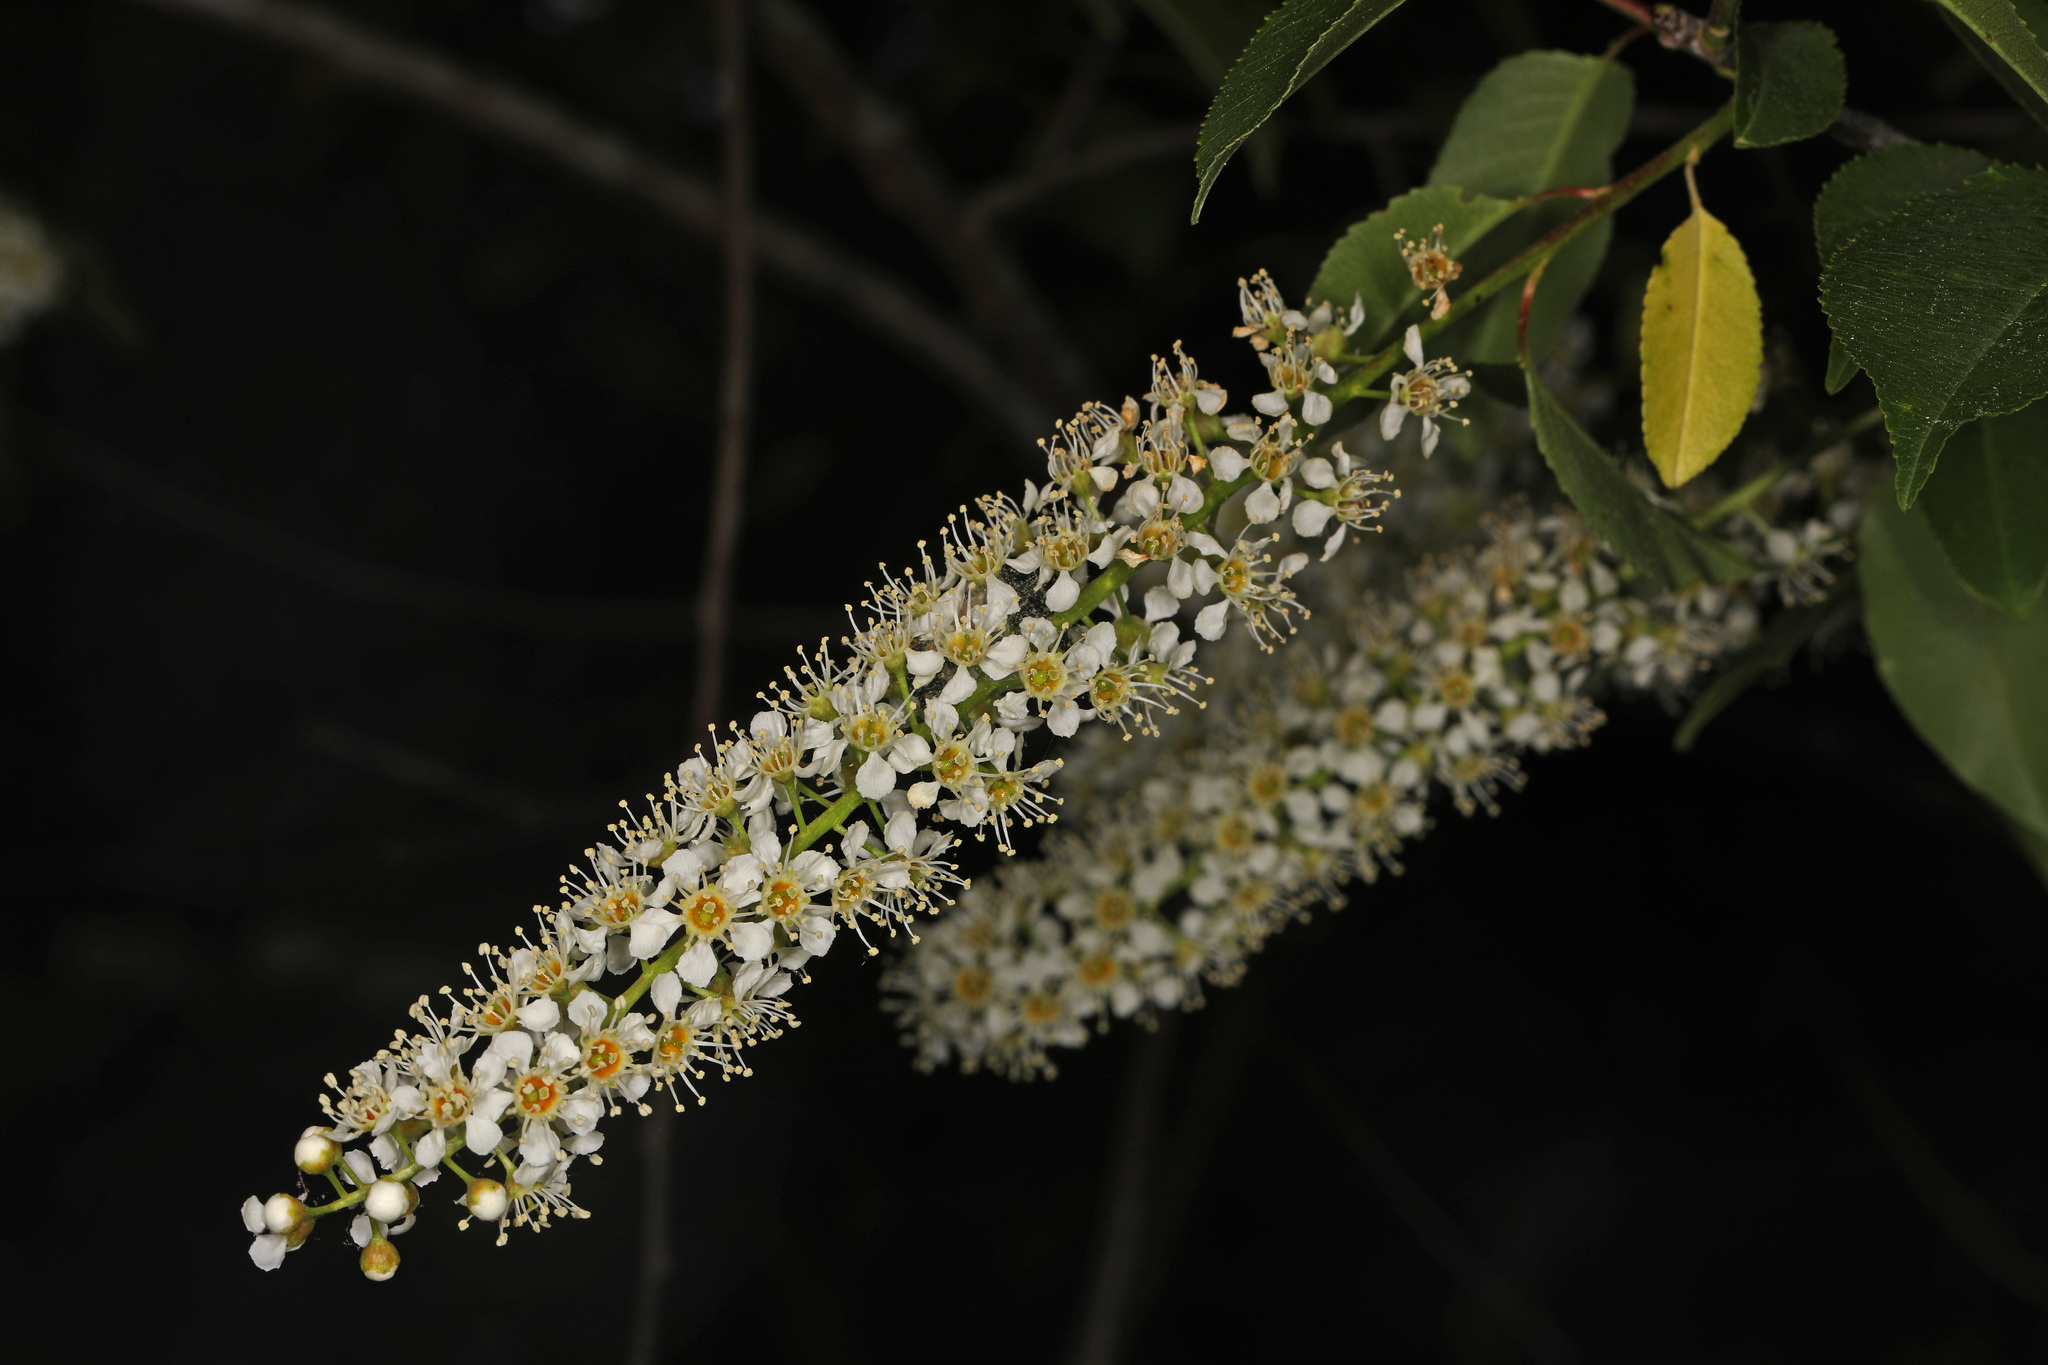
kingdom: Plantae
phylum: Tracheophyta
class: Magnoliopsida
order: Rosales
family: Rosaceae
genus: Prunus
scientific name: Prunus serotina
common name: Black cherry
